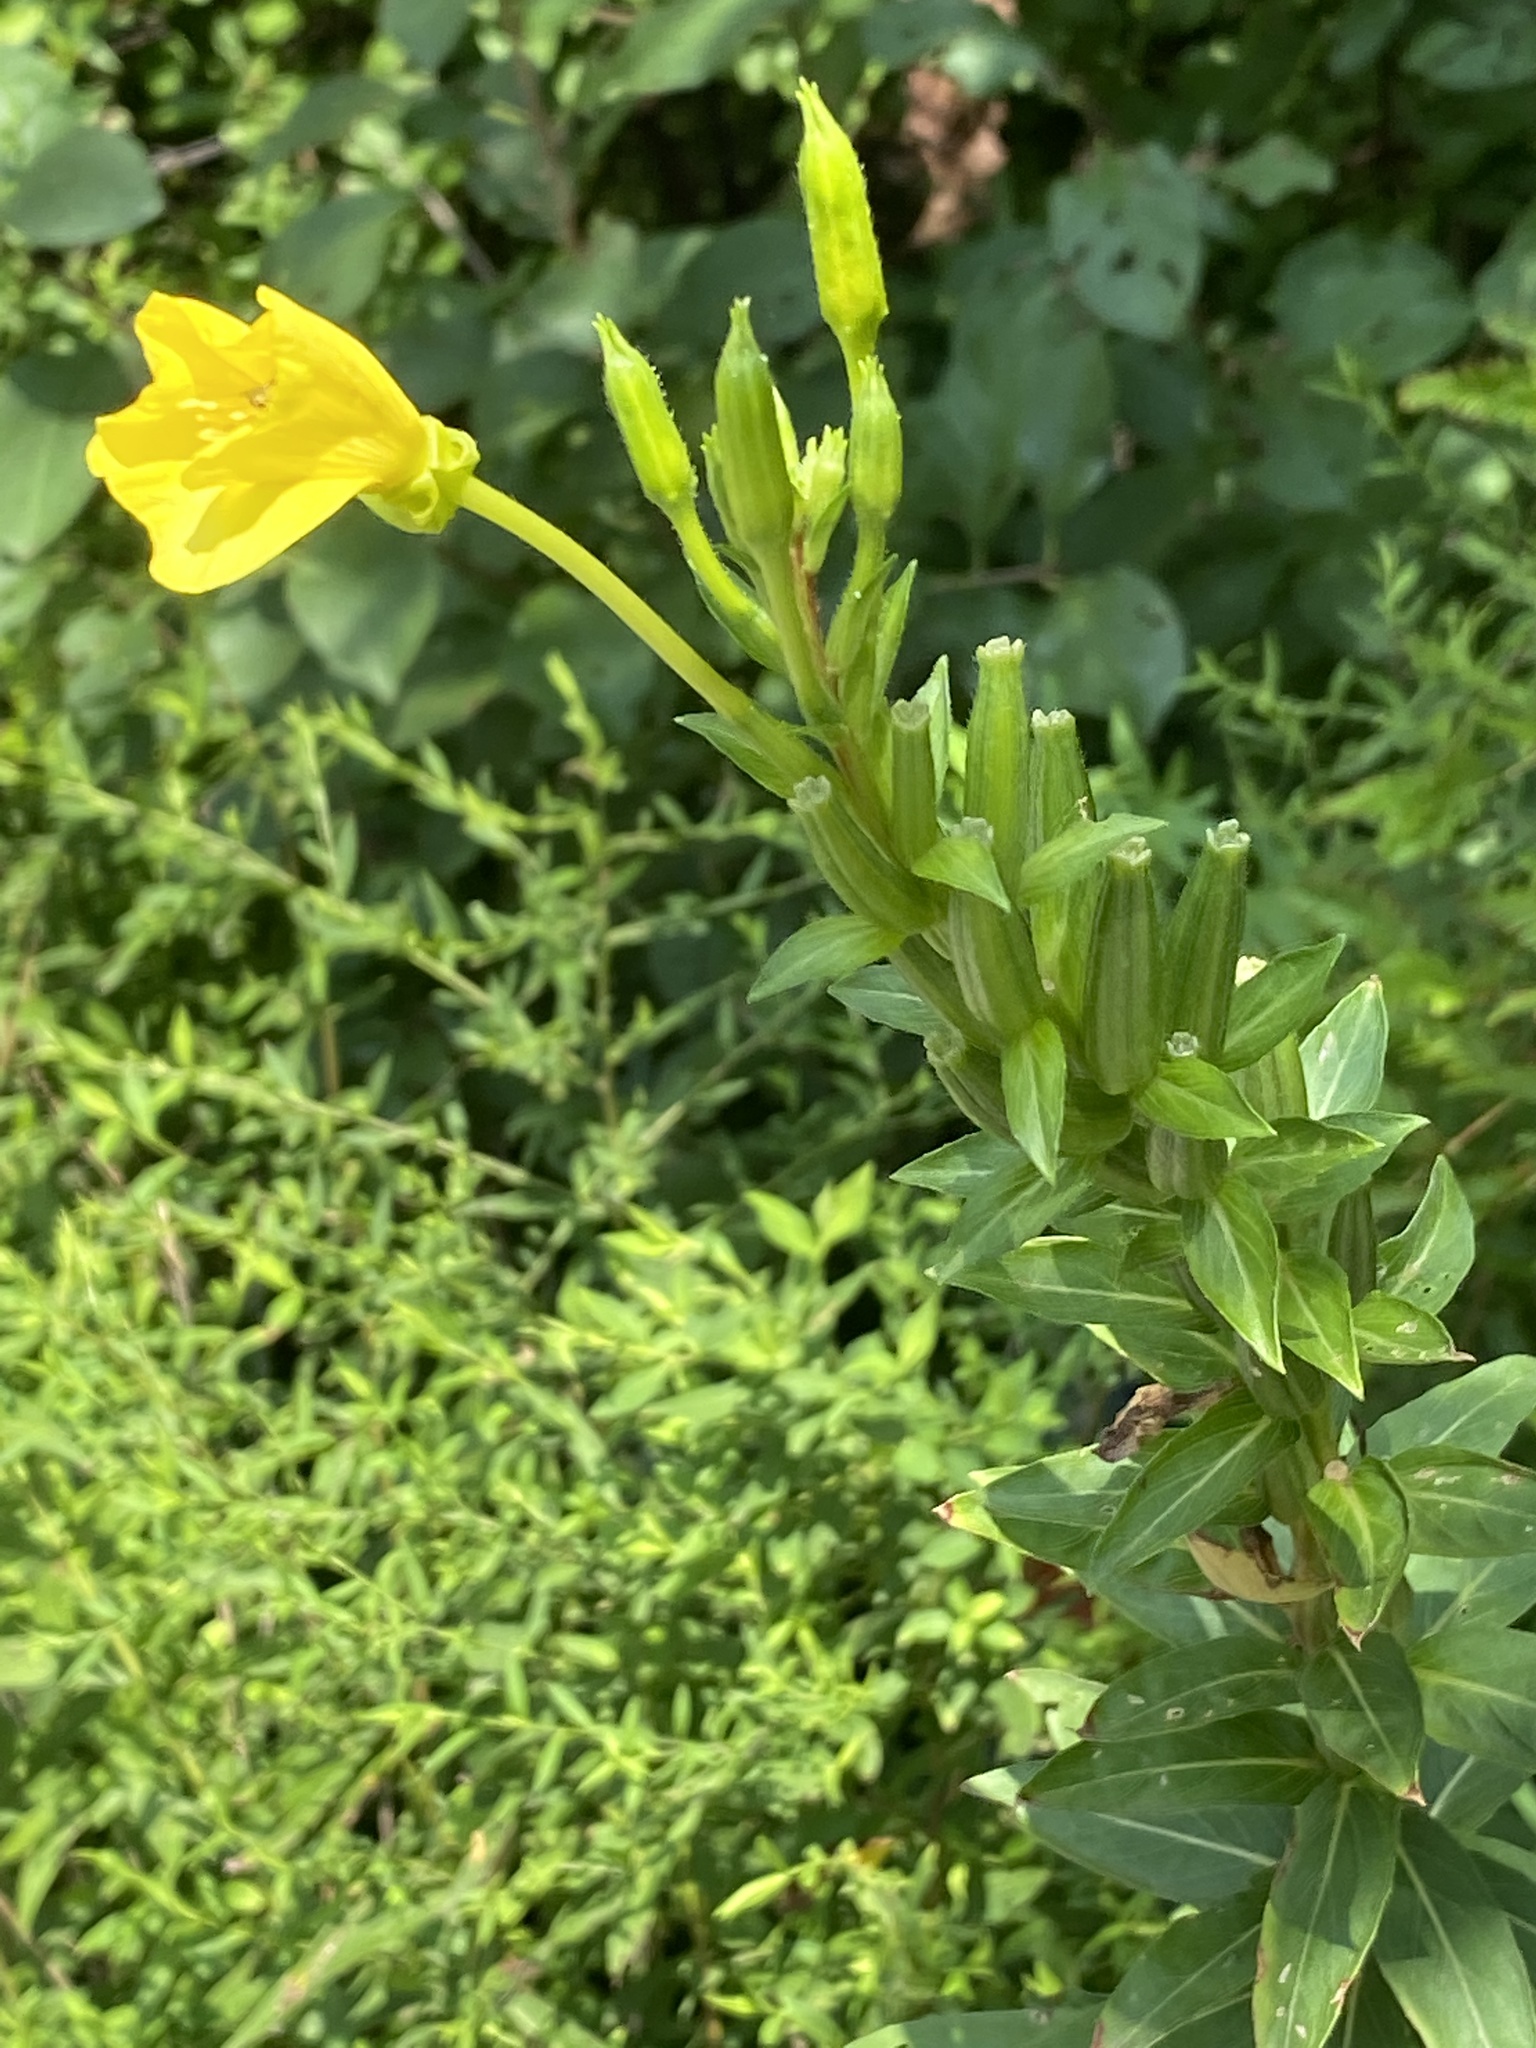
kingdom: Plantae
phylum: Tracheophyta
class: Magnoliopsida
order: Myrtales
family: Onagraceae
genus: Oenothera
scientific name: Oenothera biennis
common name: Common evening-primrose
